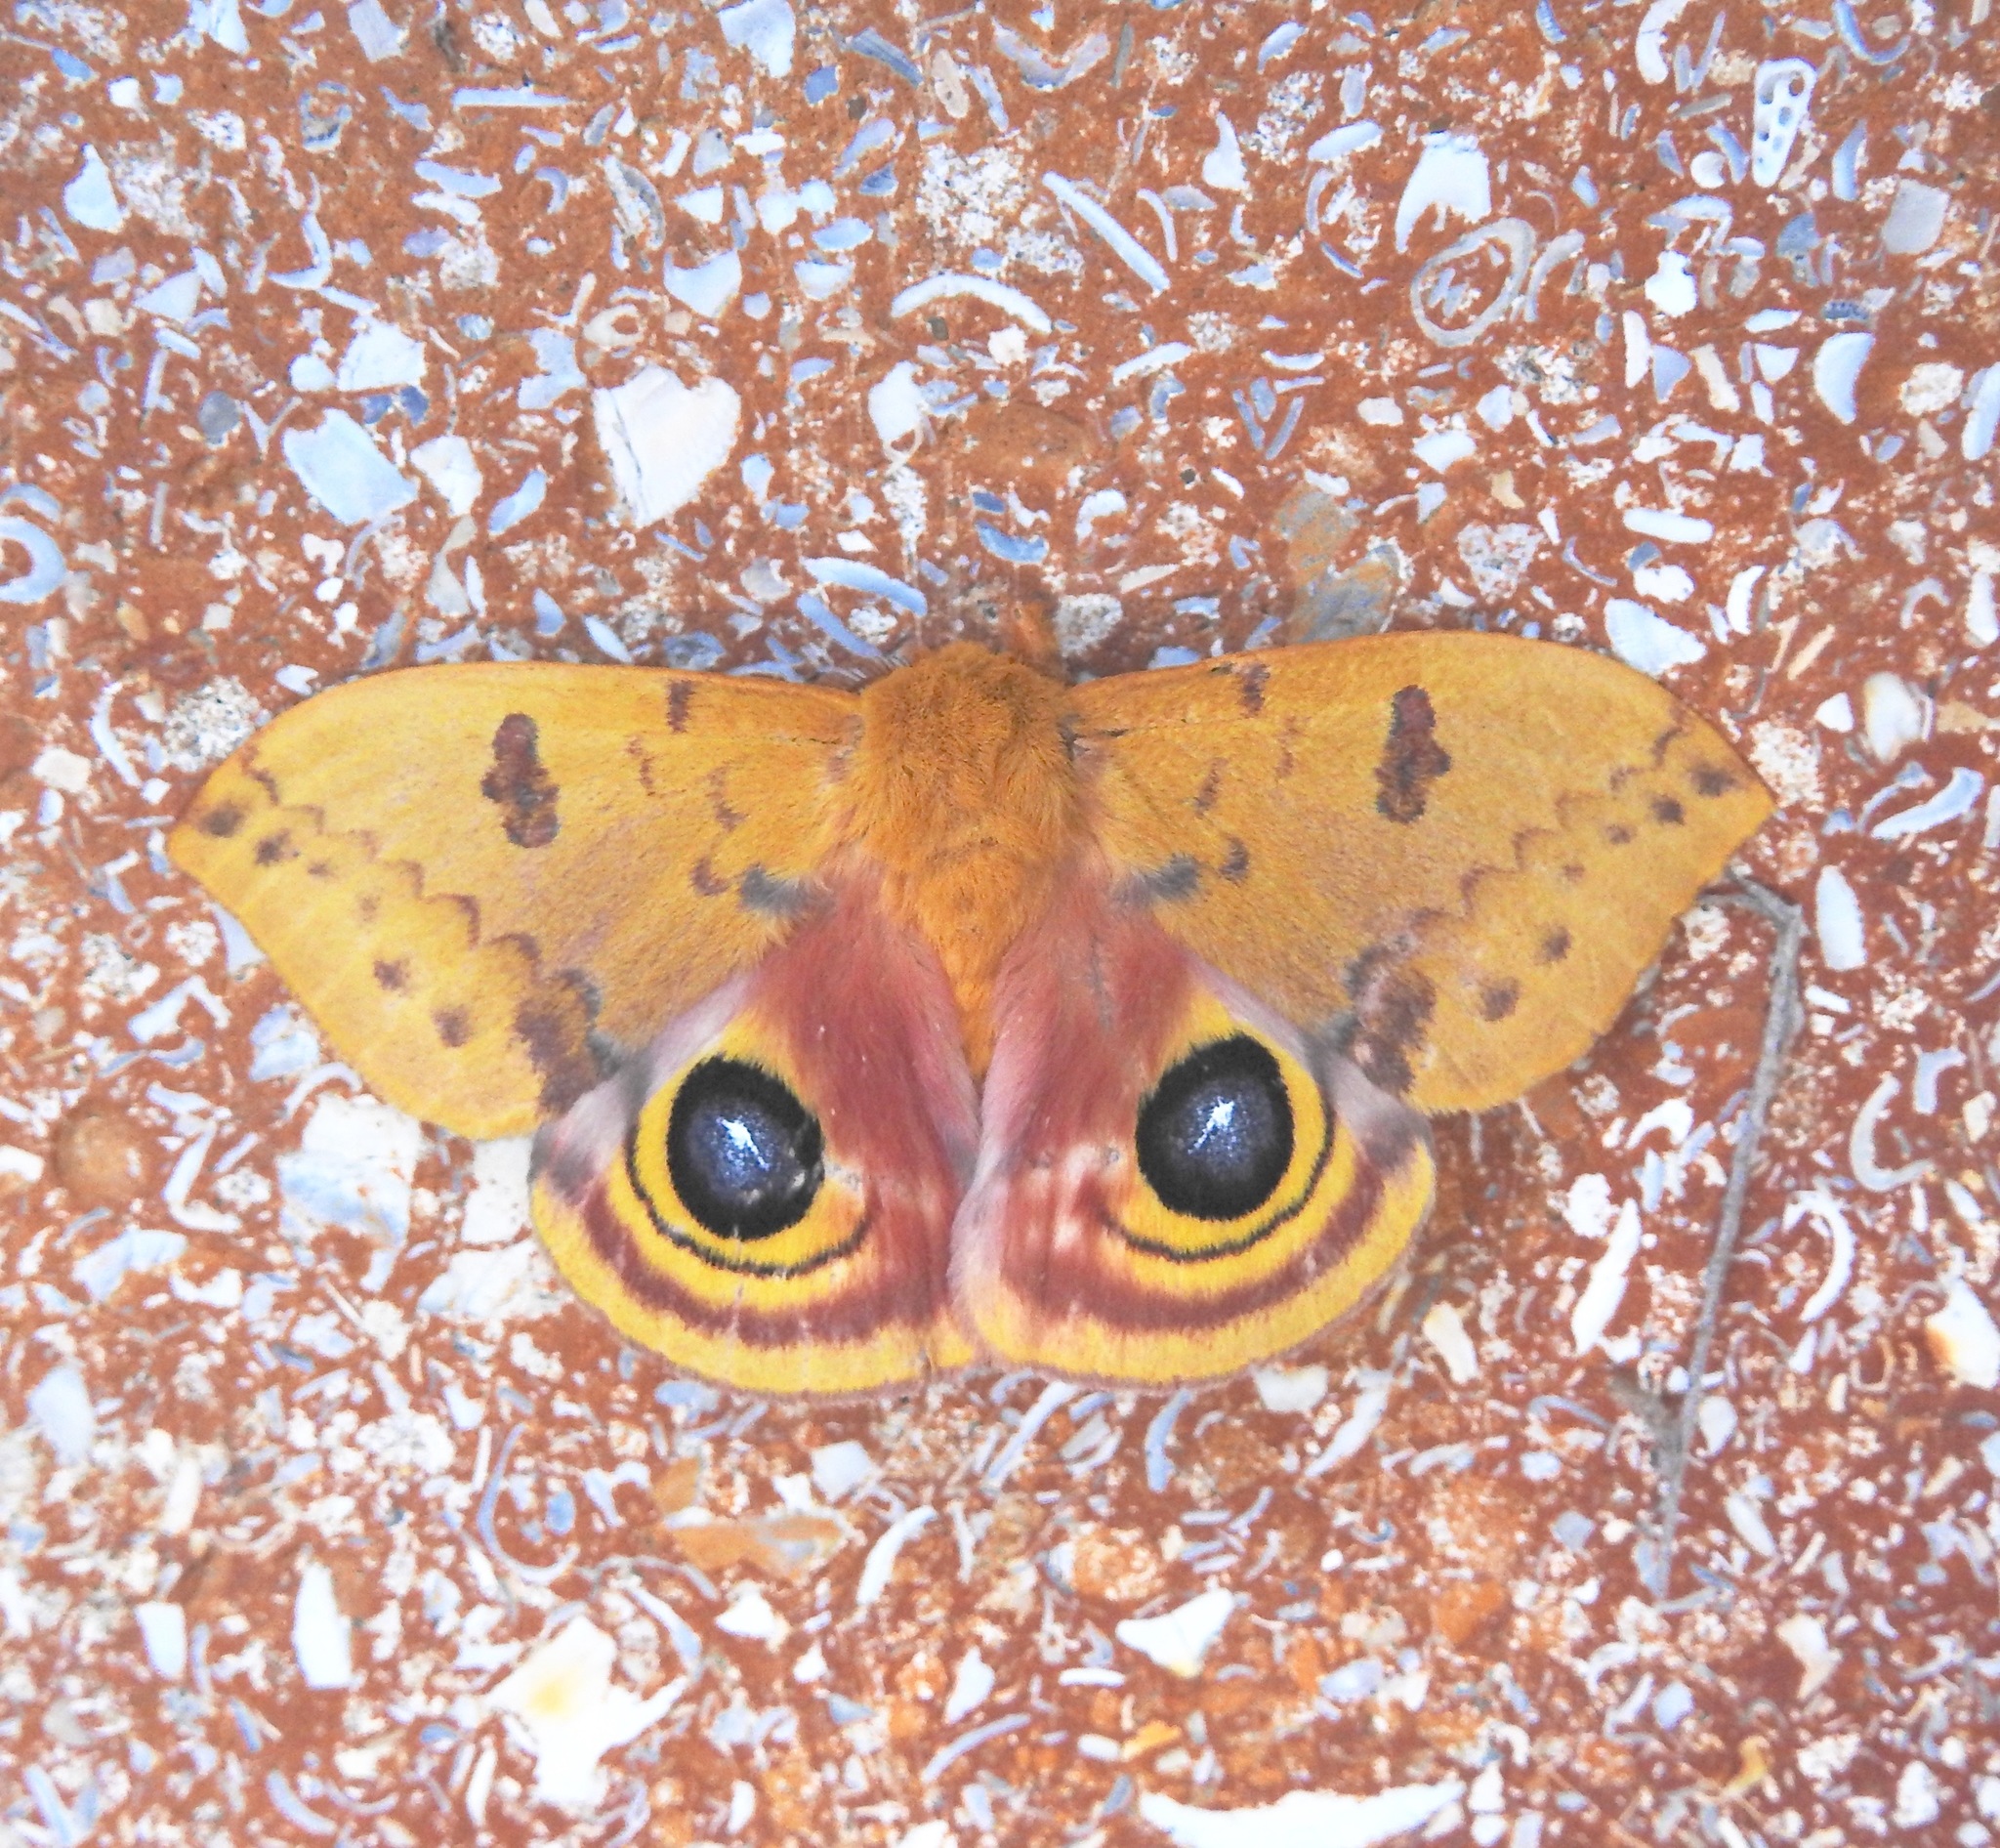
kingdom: Animalia
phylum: Arthropoda
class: Insecta
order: Lepidoptera
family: Saturniidae
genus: Automeris
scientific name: Automeris io
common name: Io moth
